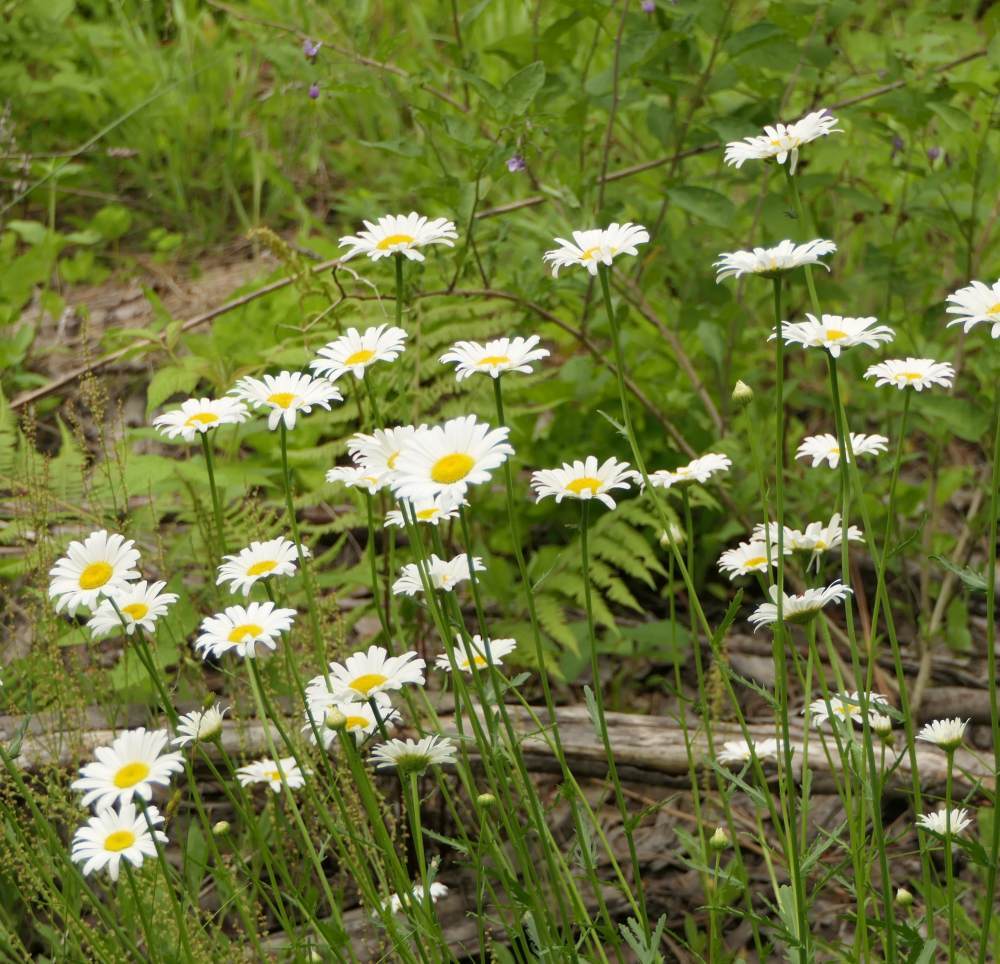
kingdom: Plantae
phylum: Tracheophyta
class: Magnoliopsida
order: Asterales
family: Asteraceae
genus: Leucanthemum
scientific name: Leucanthemum vulgare
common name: Oxeye daisy
